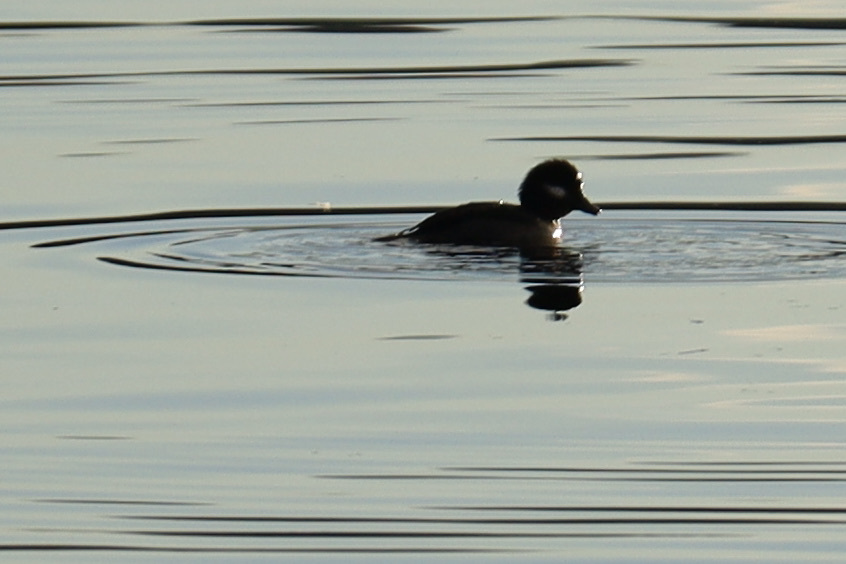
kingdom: Animalia
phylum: Chordata
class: Aves
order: Anseriformes
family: Anatidae
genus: Bucephala
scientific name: Bucephala albeola
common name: Bufflehead
